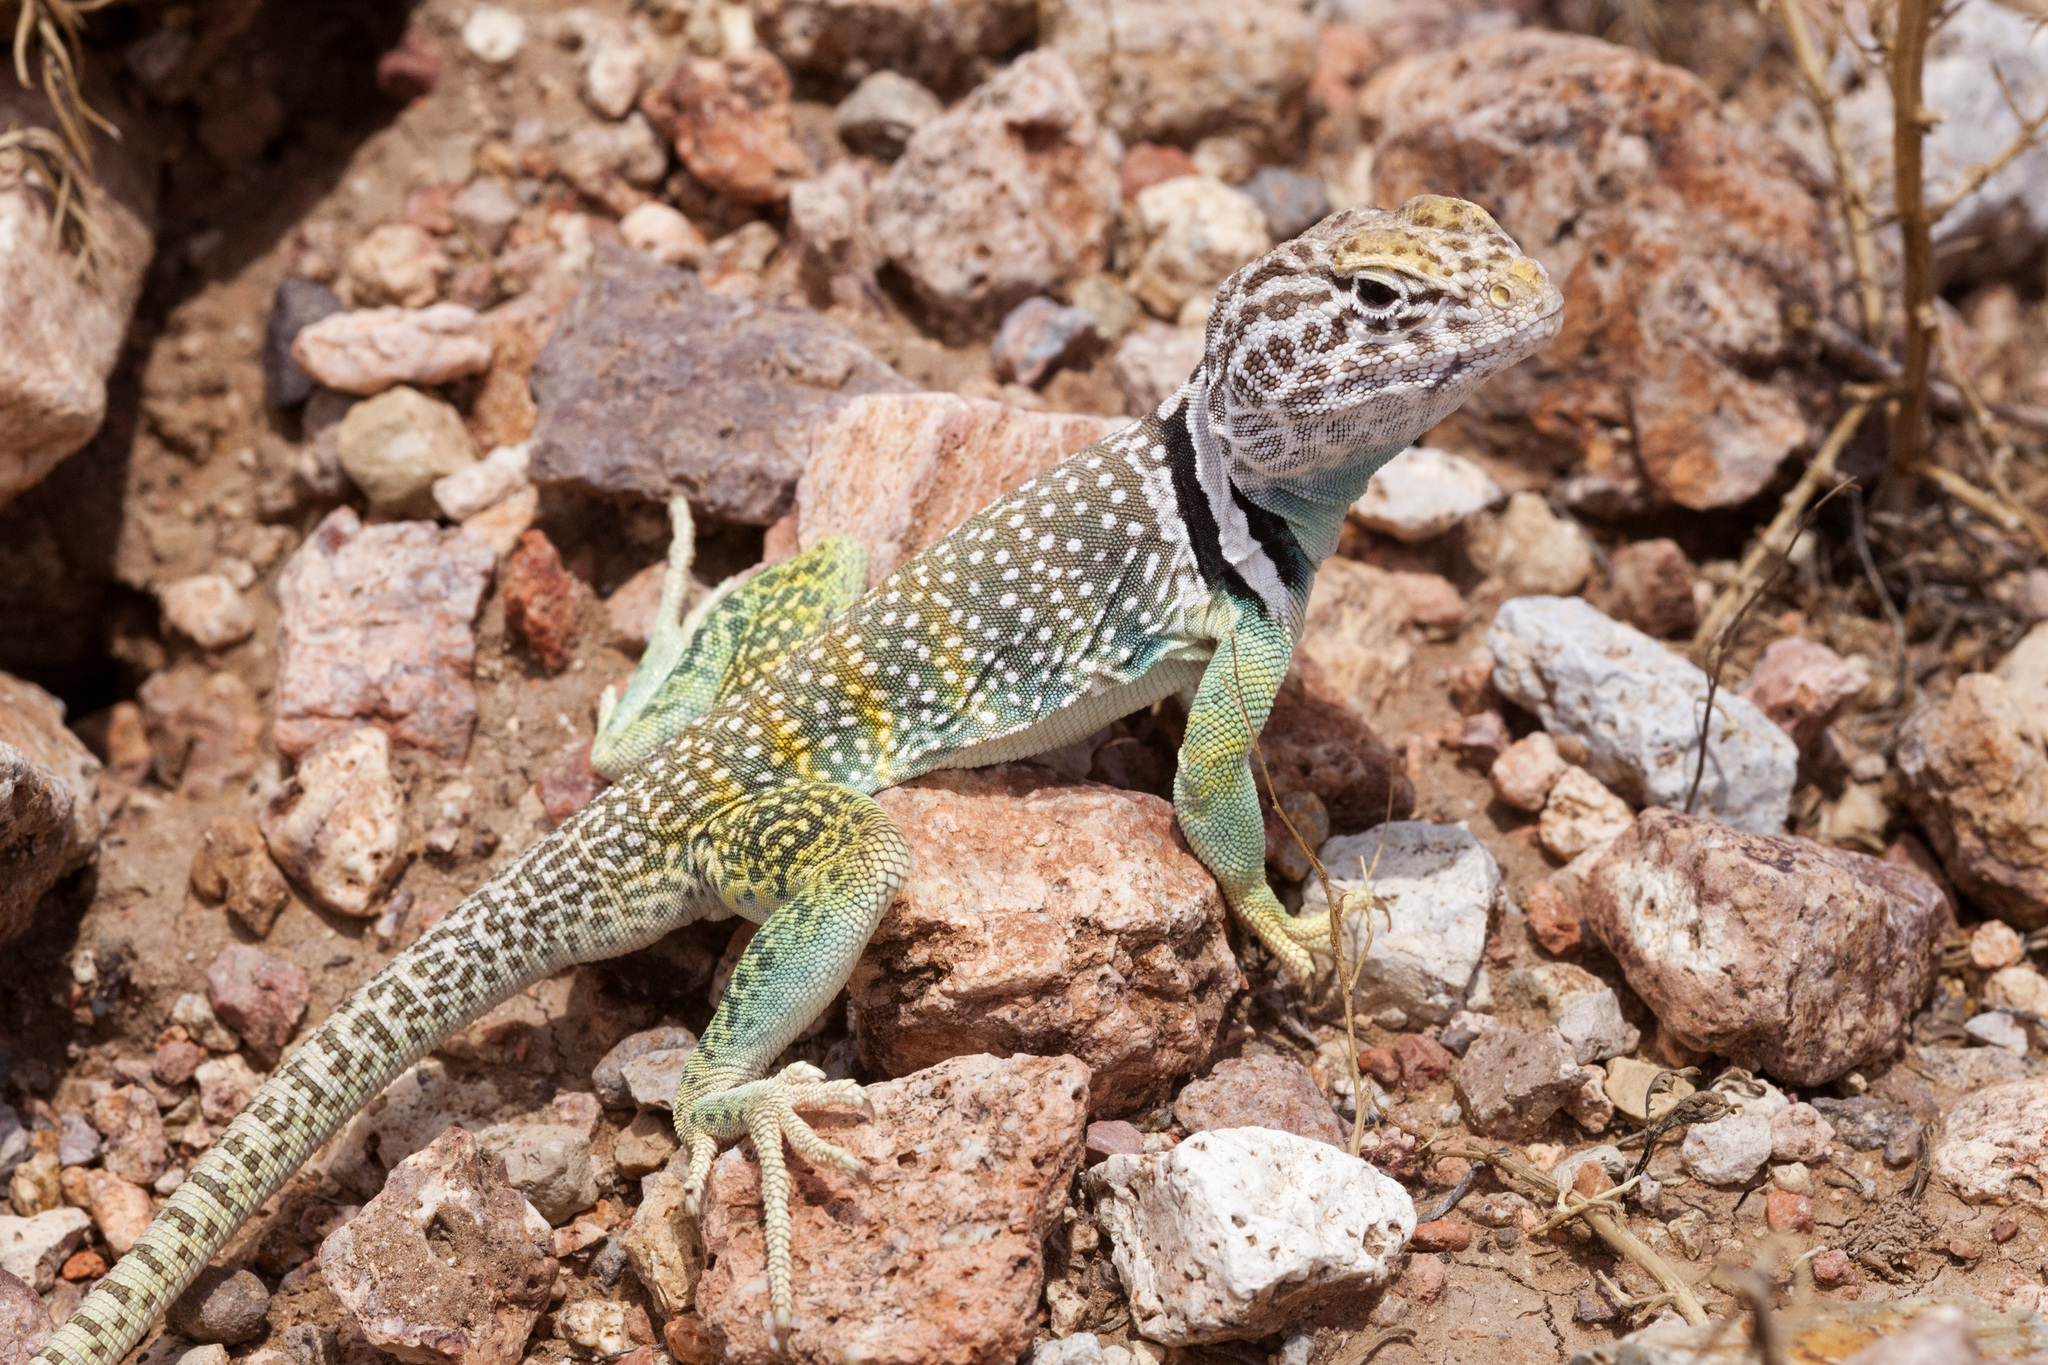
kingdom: Animalia
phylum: Chordata
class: Squamata
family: Crotaphytidae
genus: Crotaphytus
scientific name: Crotaphytus collaris
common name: Collared lizard
